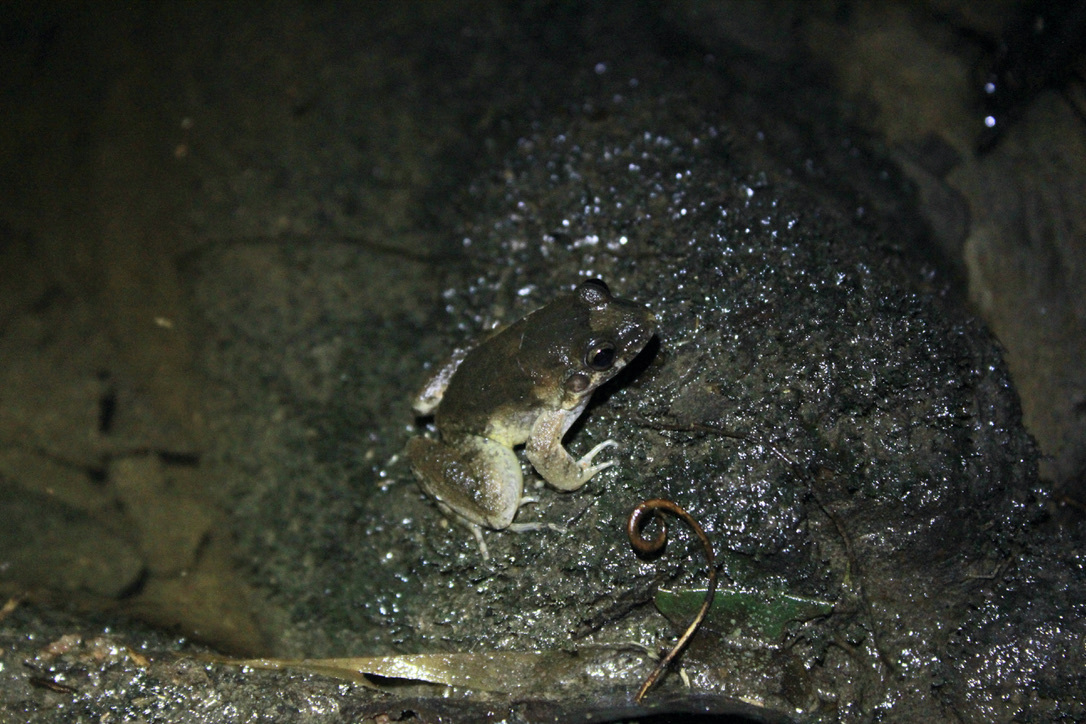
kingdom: Animalia
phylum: Chordata
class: Amphibia
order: Anura
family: Leptodactylidae
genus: Leptodactylus
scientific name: Leptodactylus validus
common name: Smooth-skinned ditch frog
